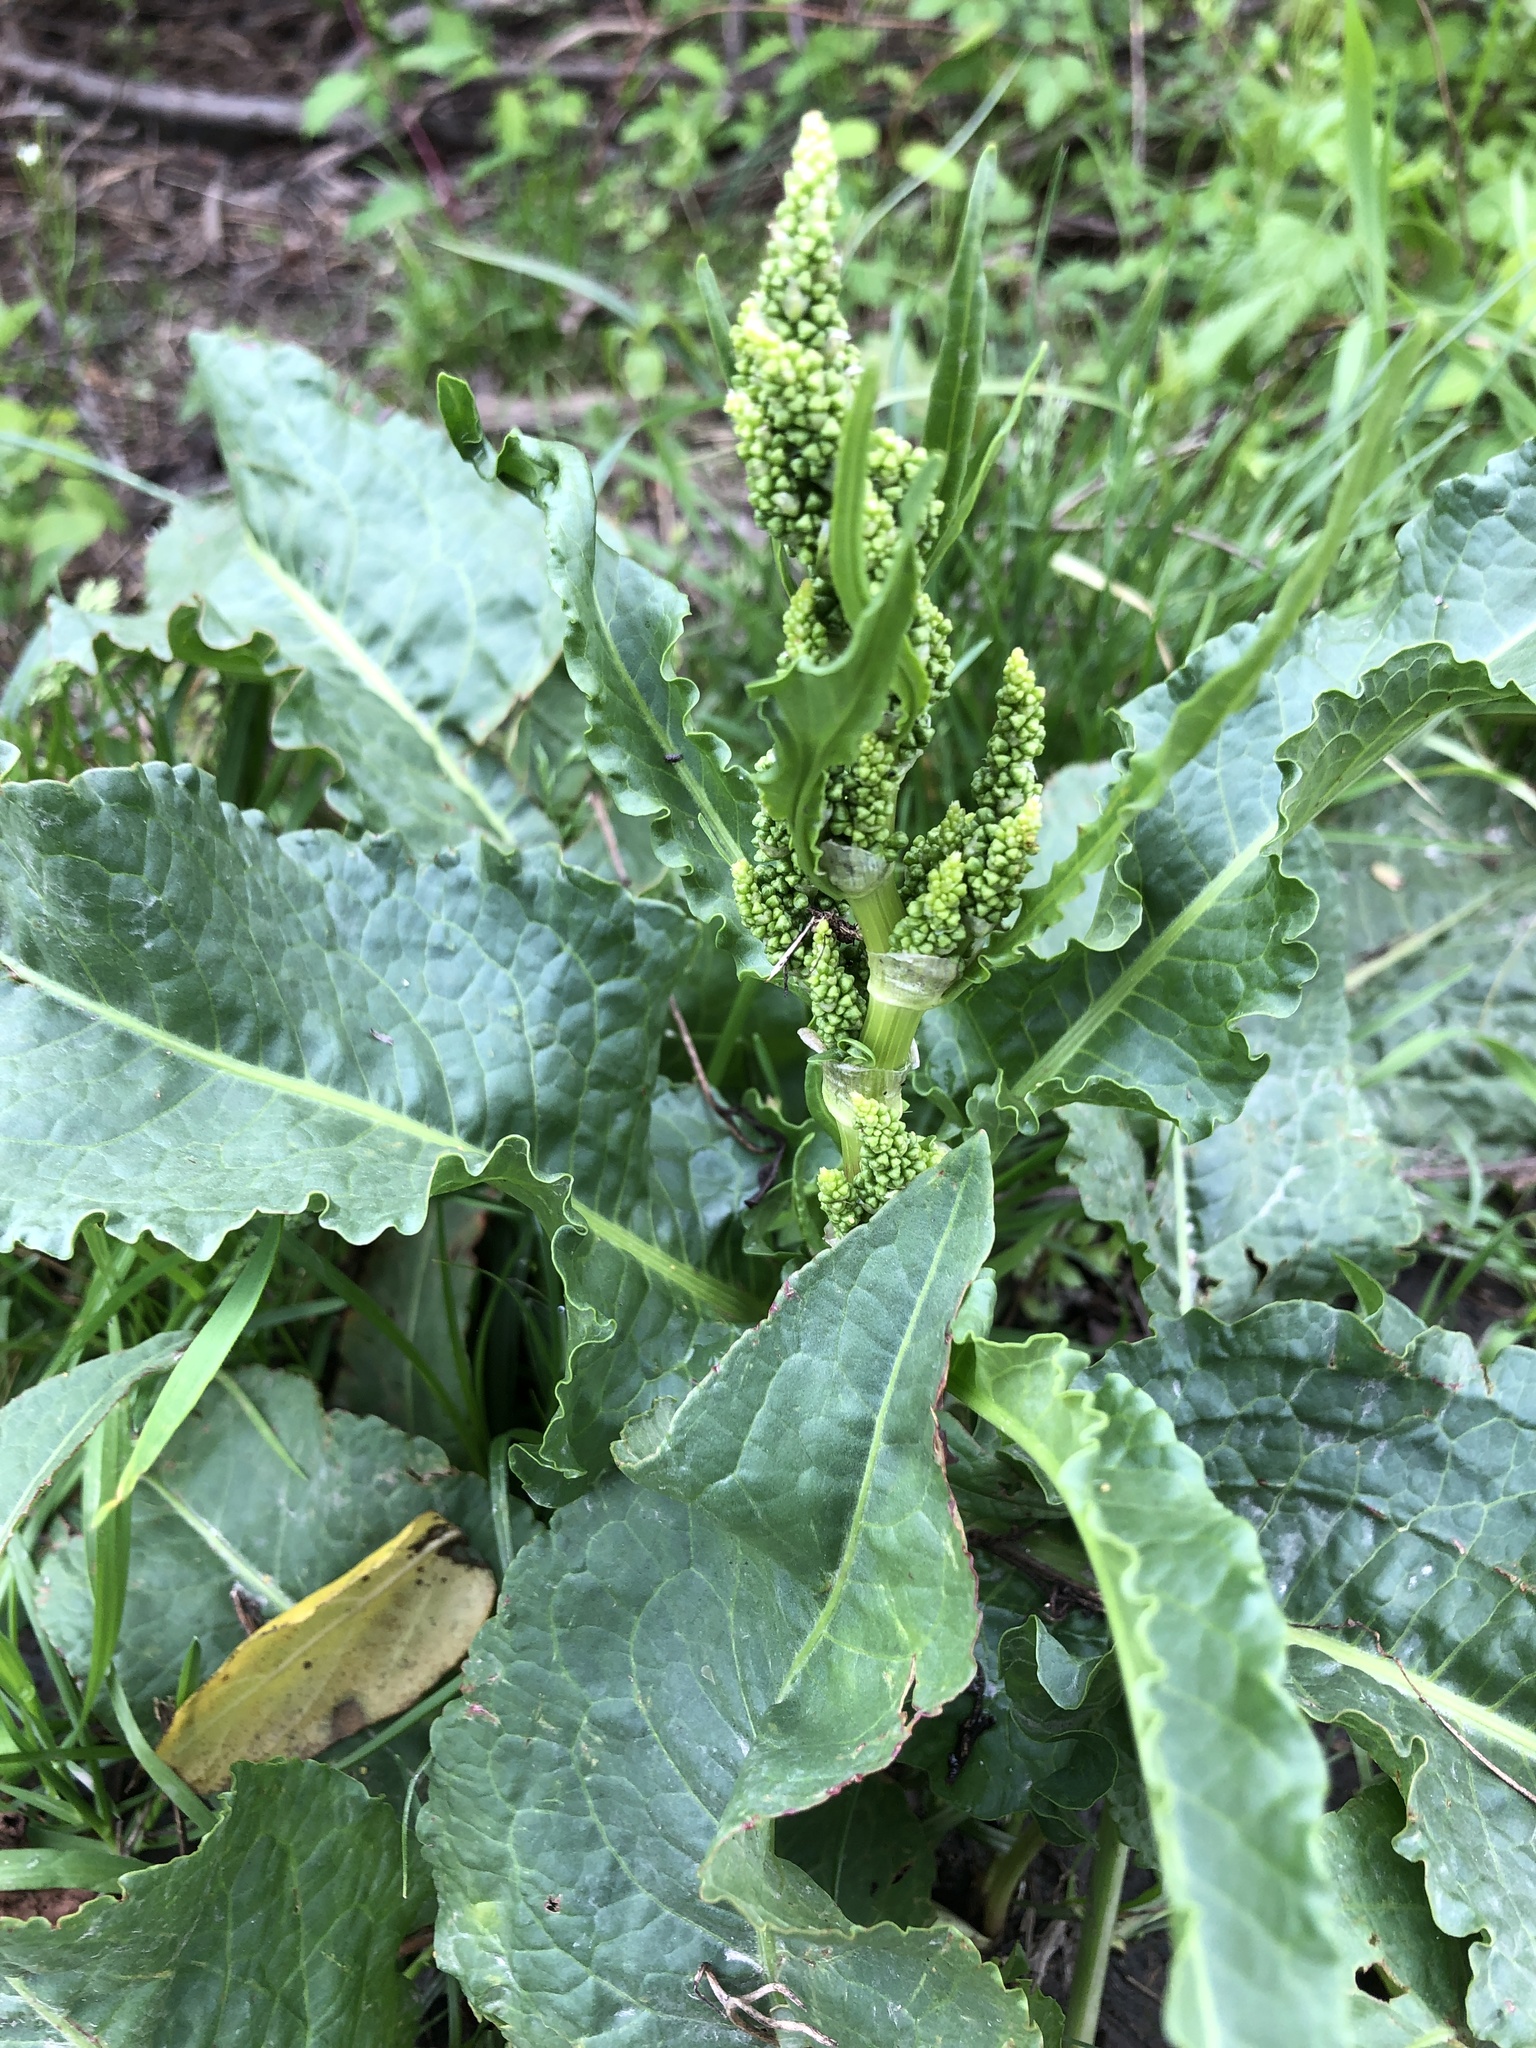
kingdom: Plantae
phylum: Tracheophyta
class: Magnoliopsida
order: Caryophyllales
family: Polygonaceae
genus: Rumex
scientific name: Rumex crispus
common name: Curled dock
